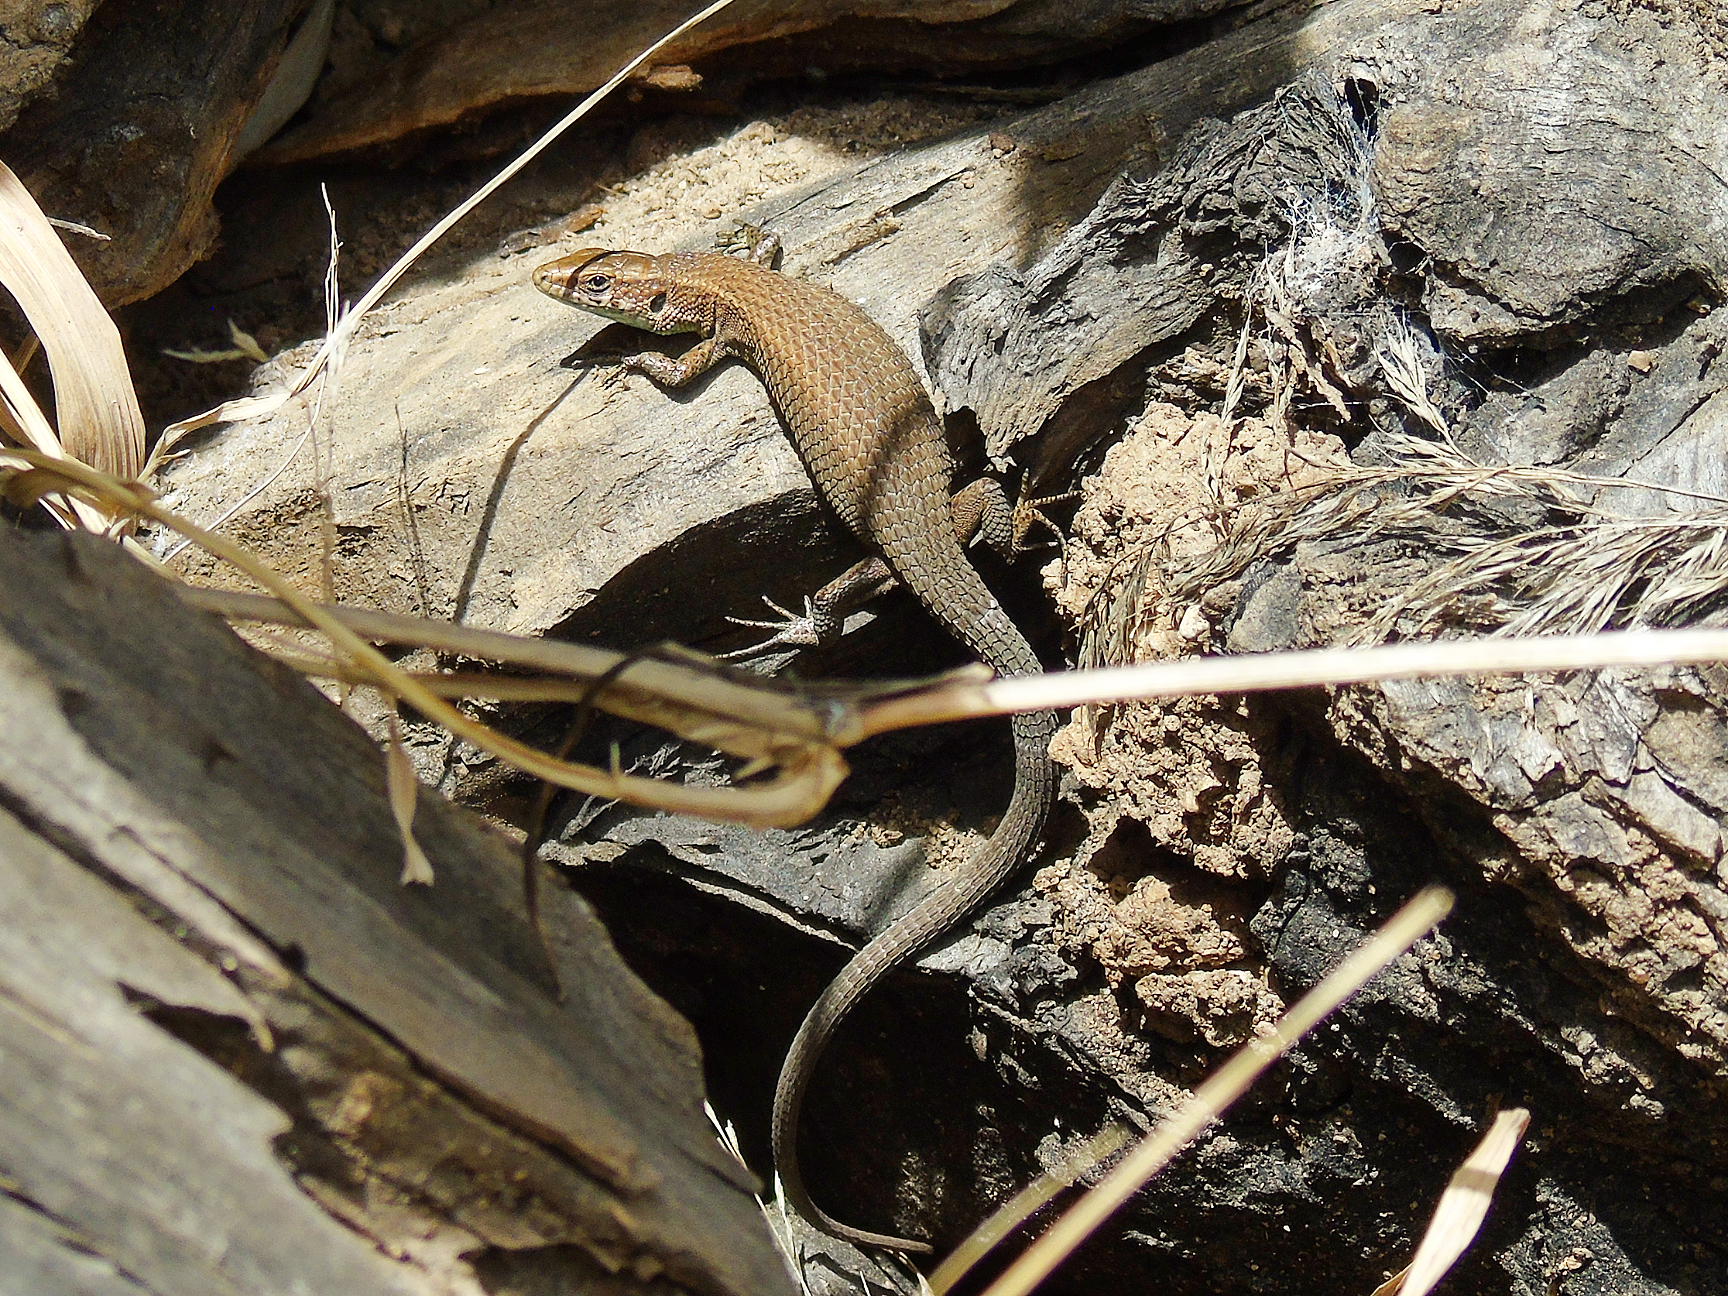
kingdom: Animalia
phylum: Chordata
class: Squamata
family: Lacertidae
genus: Algyroides
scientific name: Algyroides moreoticus
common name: Greek algyroides
